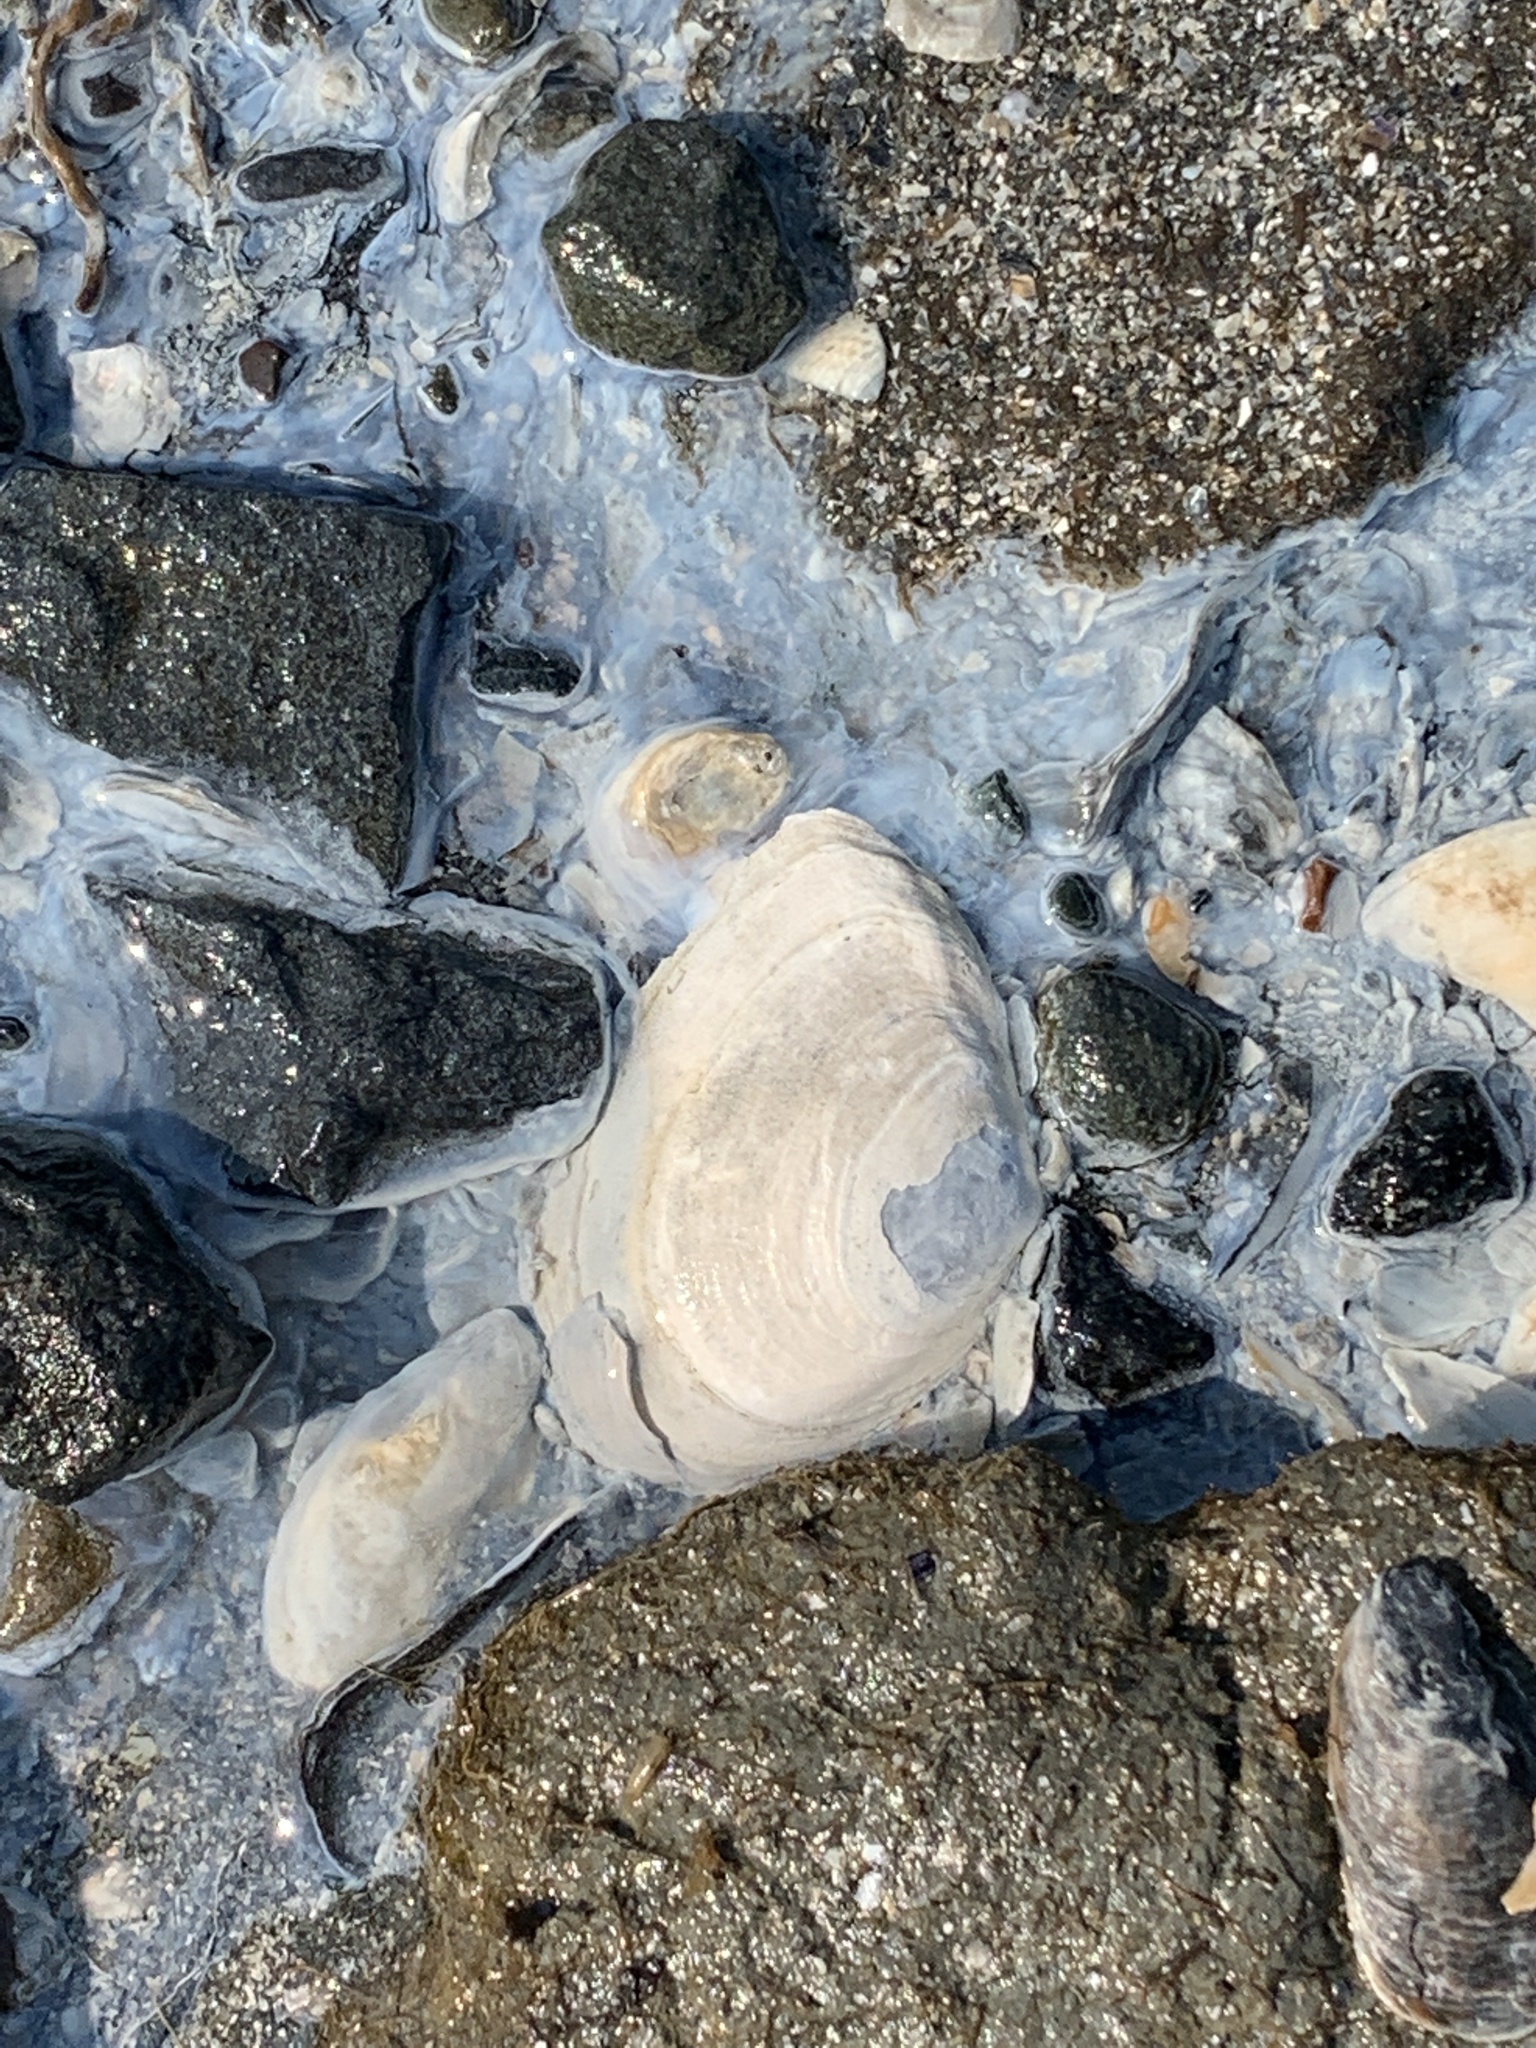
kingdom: Animalia
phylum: Mollusca
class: Bivalvia
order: Cardiida
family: Tellinidae
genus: Macoma
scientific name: Macoma nasuta
